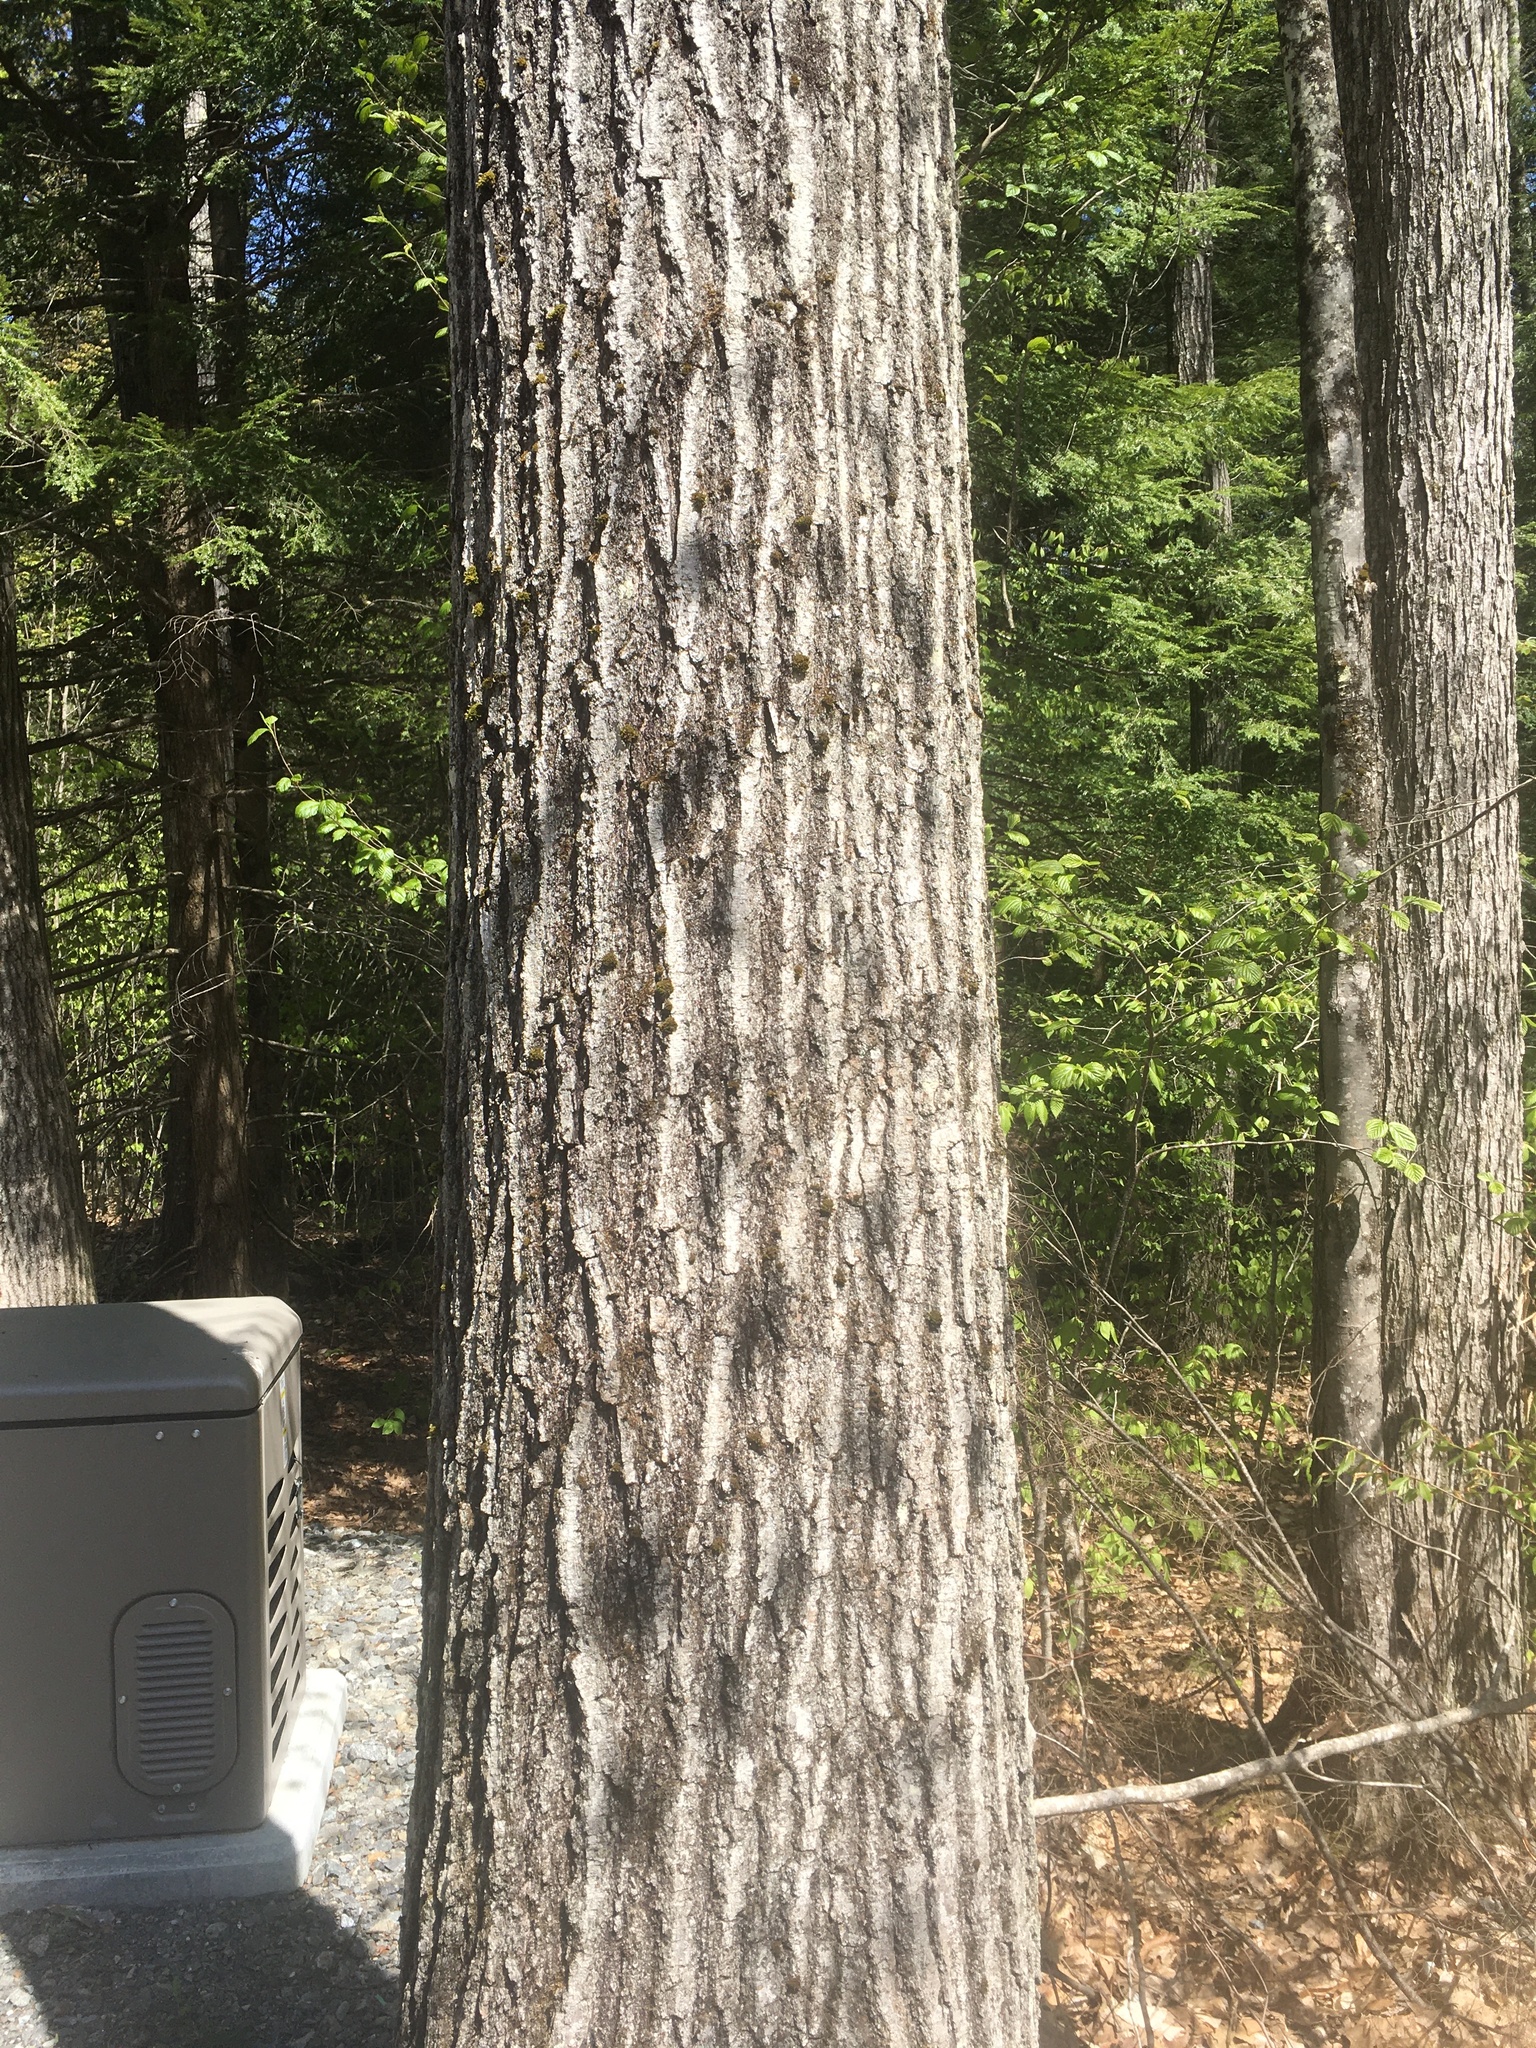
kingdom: Plantae
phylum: Tracheophyta
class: Magnoliopsida
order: Fagales
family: Fagaceae
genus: Quercus
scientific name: Quercus rubra
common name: Red oak
